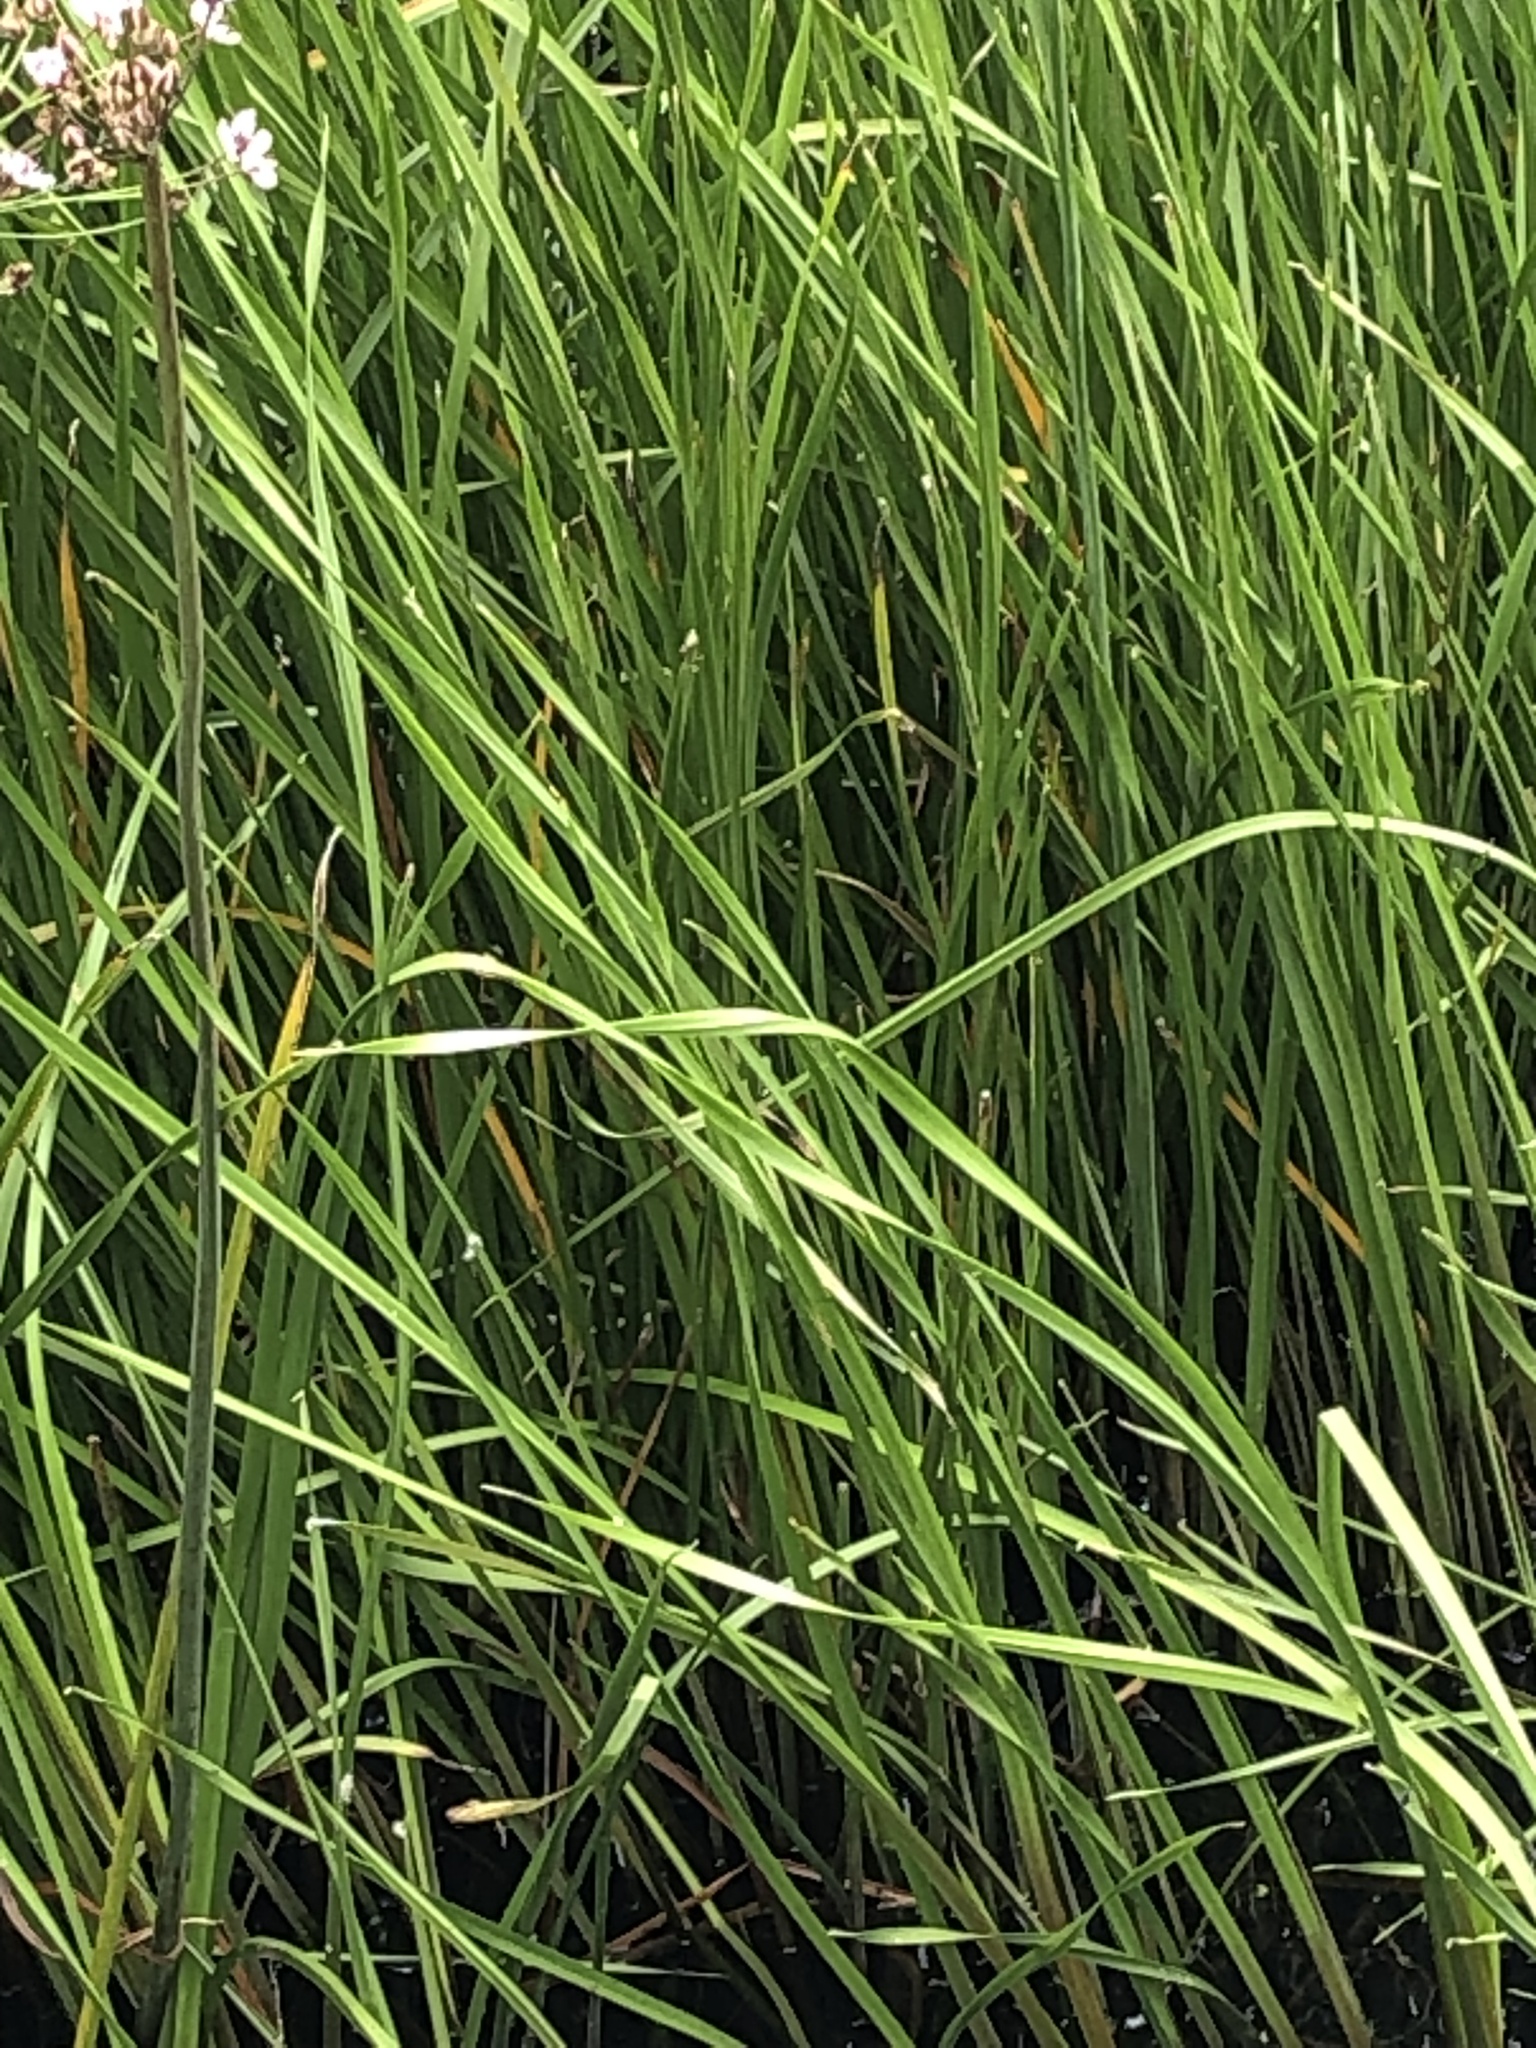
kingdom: Plantae
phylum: Tracheophyta
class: Liliopsida
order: Alismatales
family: Butomaceae
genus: Butomus
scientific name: Butomus umbellatus
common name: Flowering-rush
